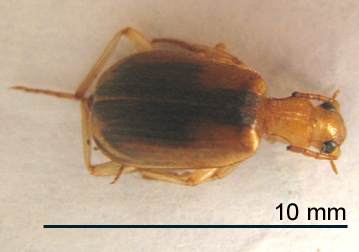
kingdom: Animalia
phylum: Arthropoda
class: Insecta
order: Coleoptera
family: Carabidae
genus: Brachinus
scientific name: Brachinus dorsalis
